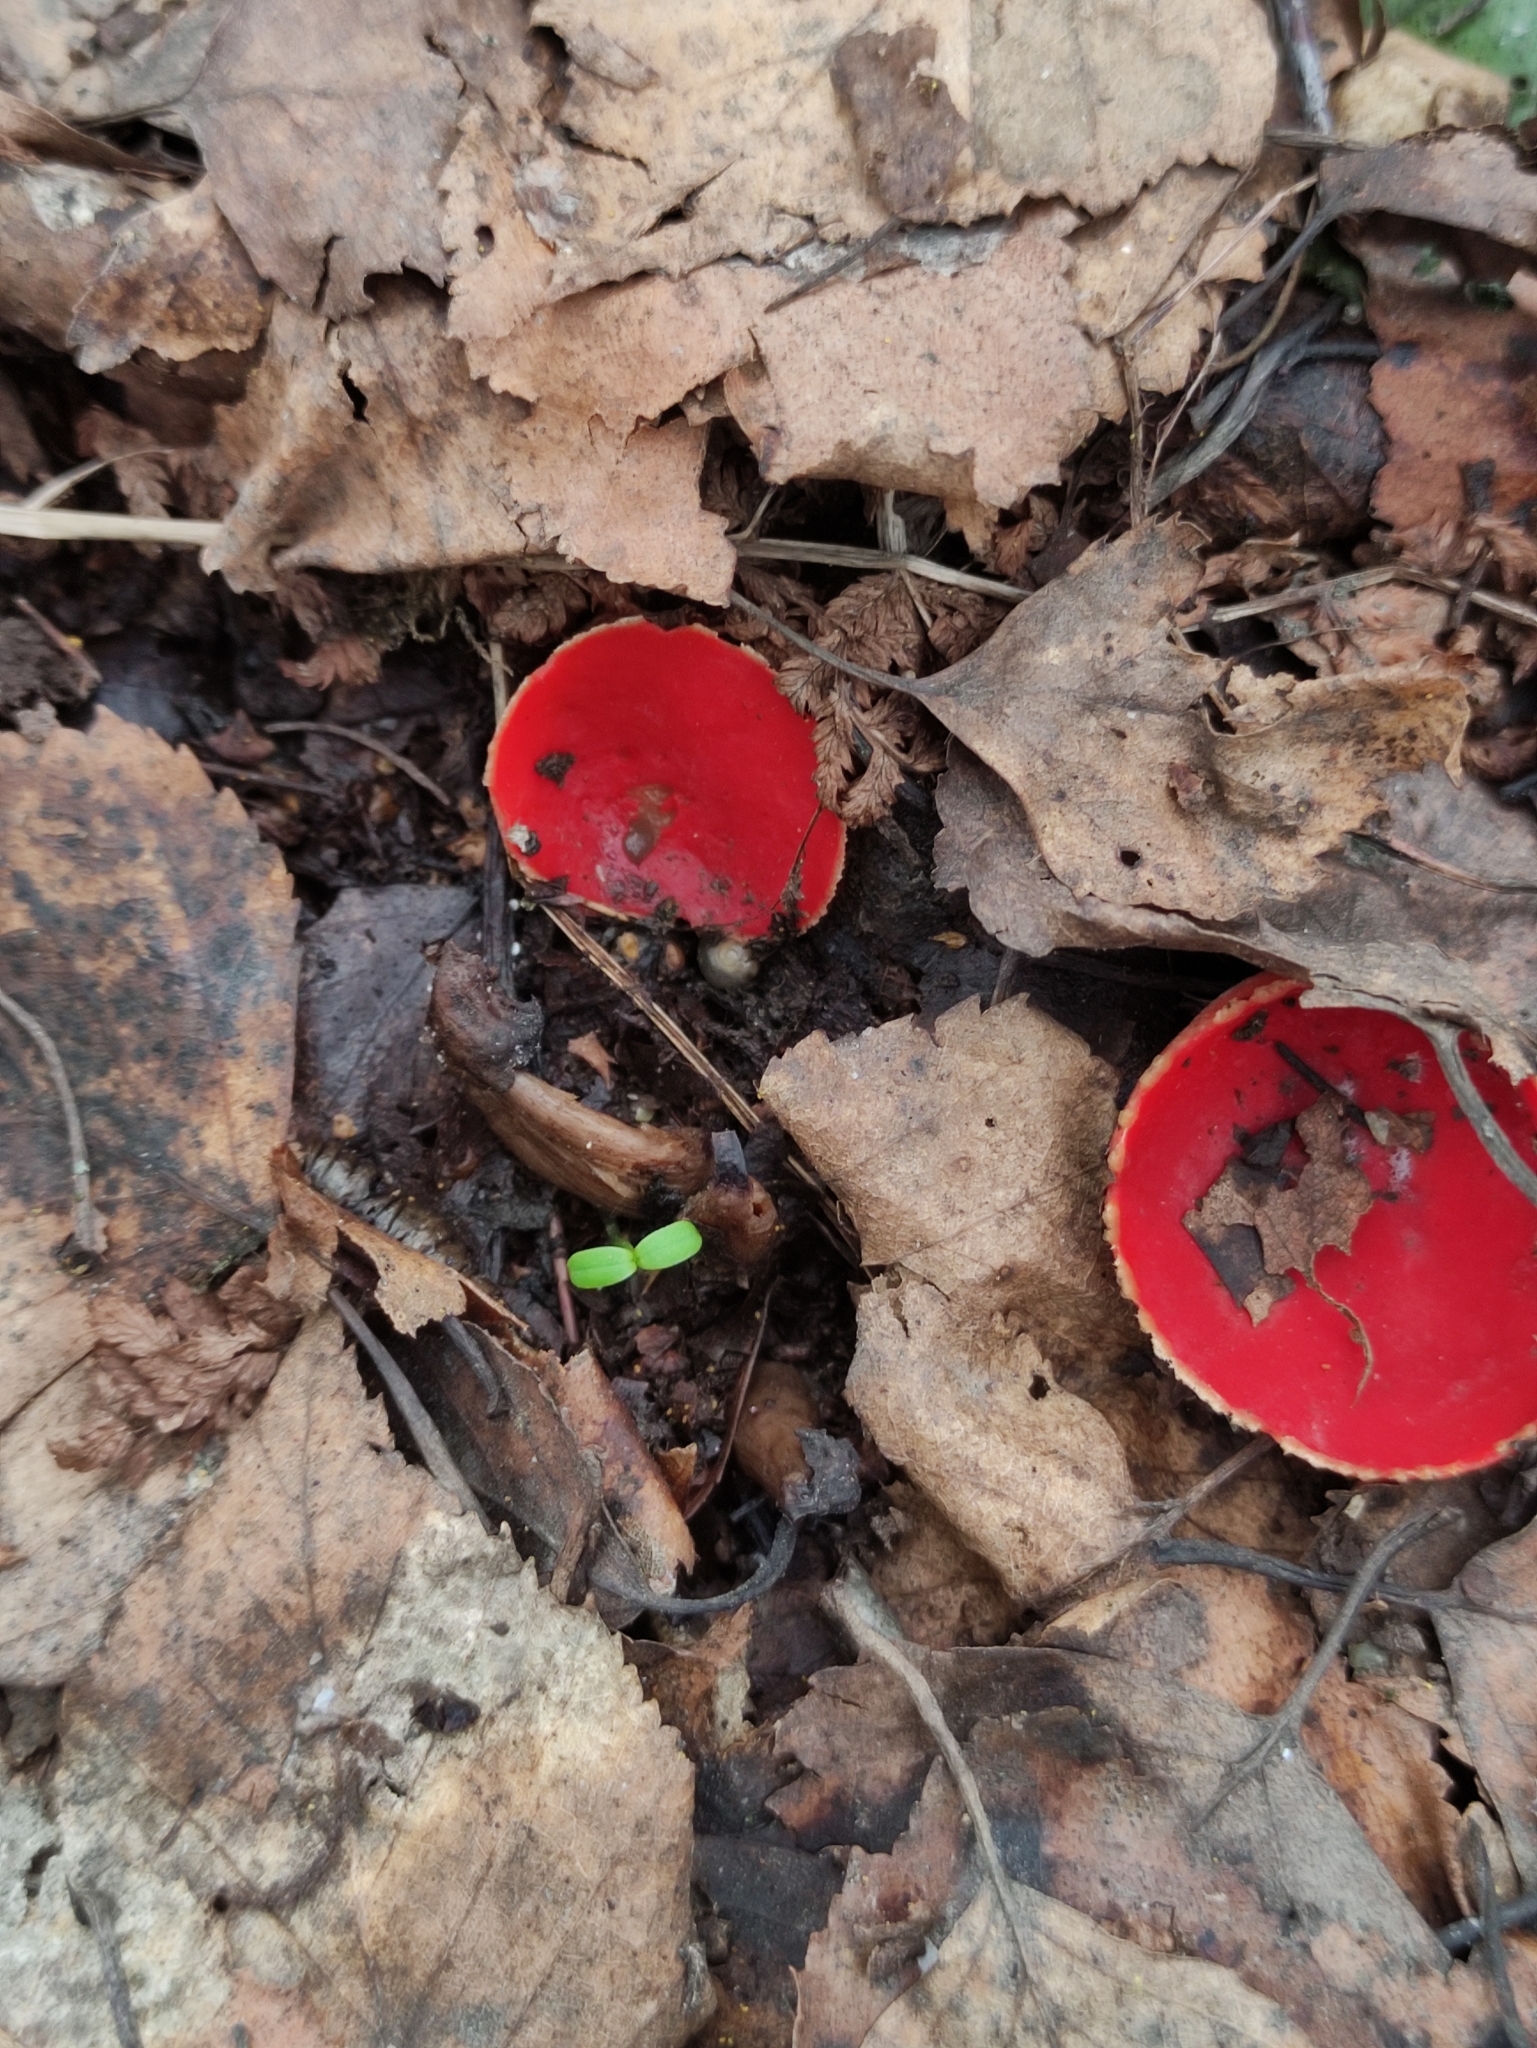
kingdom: Fungi
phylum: Ascomycota
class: Pezizomycetes
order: Pezizales
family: Sarcoscyphaceae
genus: Sarcoscypha
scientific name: Sarcoscypha austriaca
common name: Scarlet elfcup
